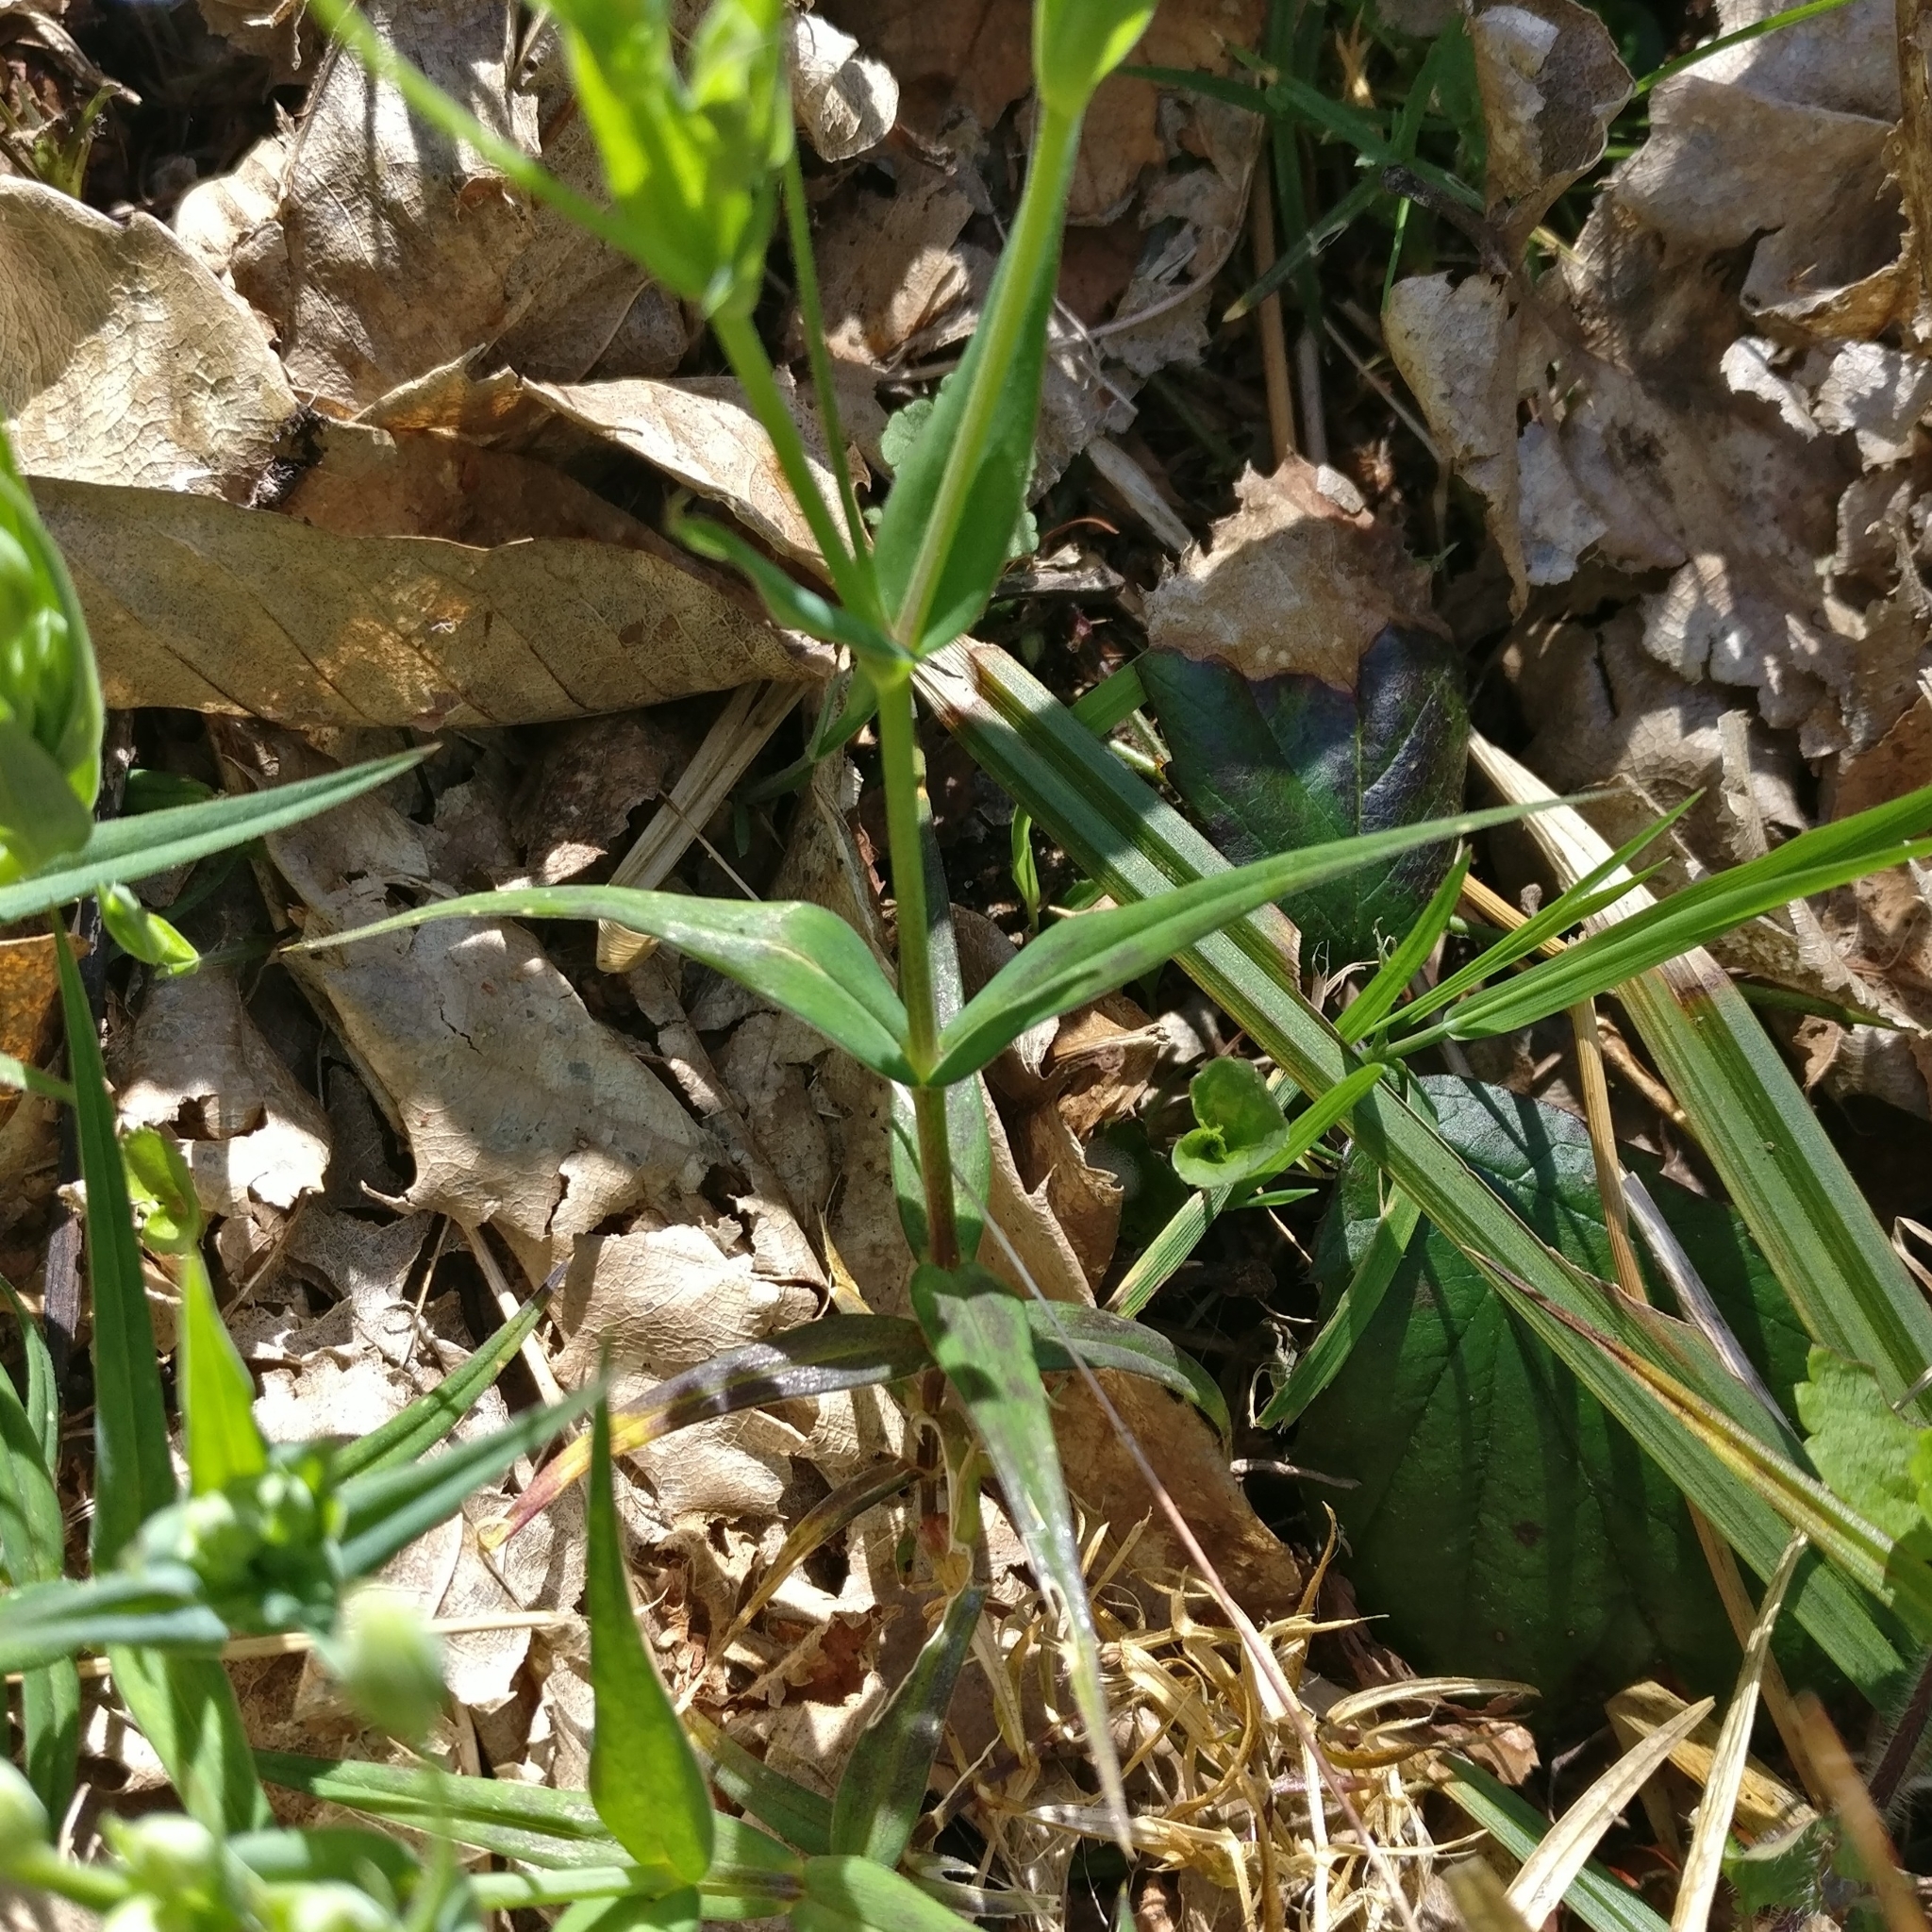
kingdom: Plantae
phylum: Tracheophyta
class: Magnoliopsida
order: Caryophyllales
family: Caryophyllaceae
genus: Rabelera
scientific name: Rabelera holostea
